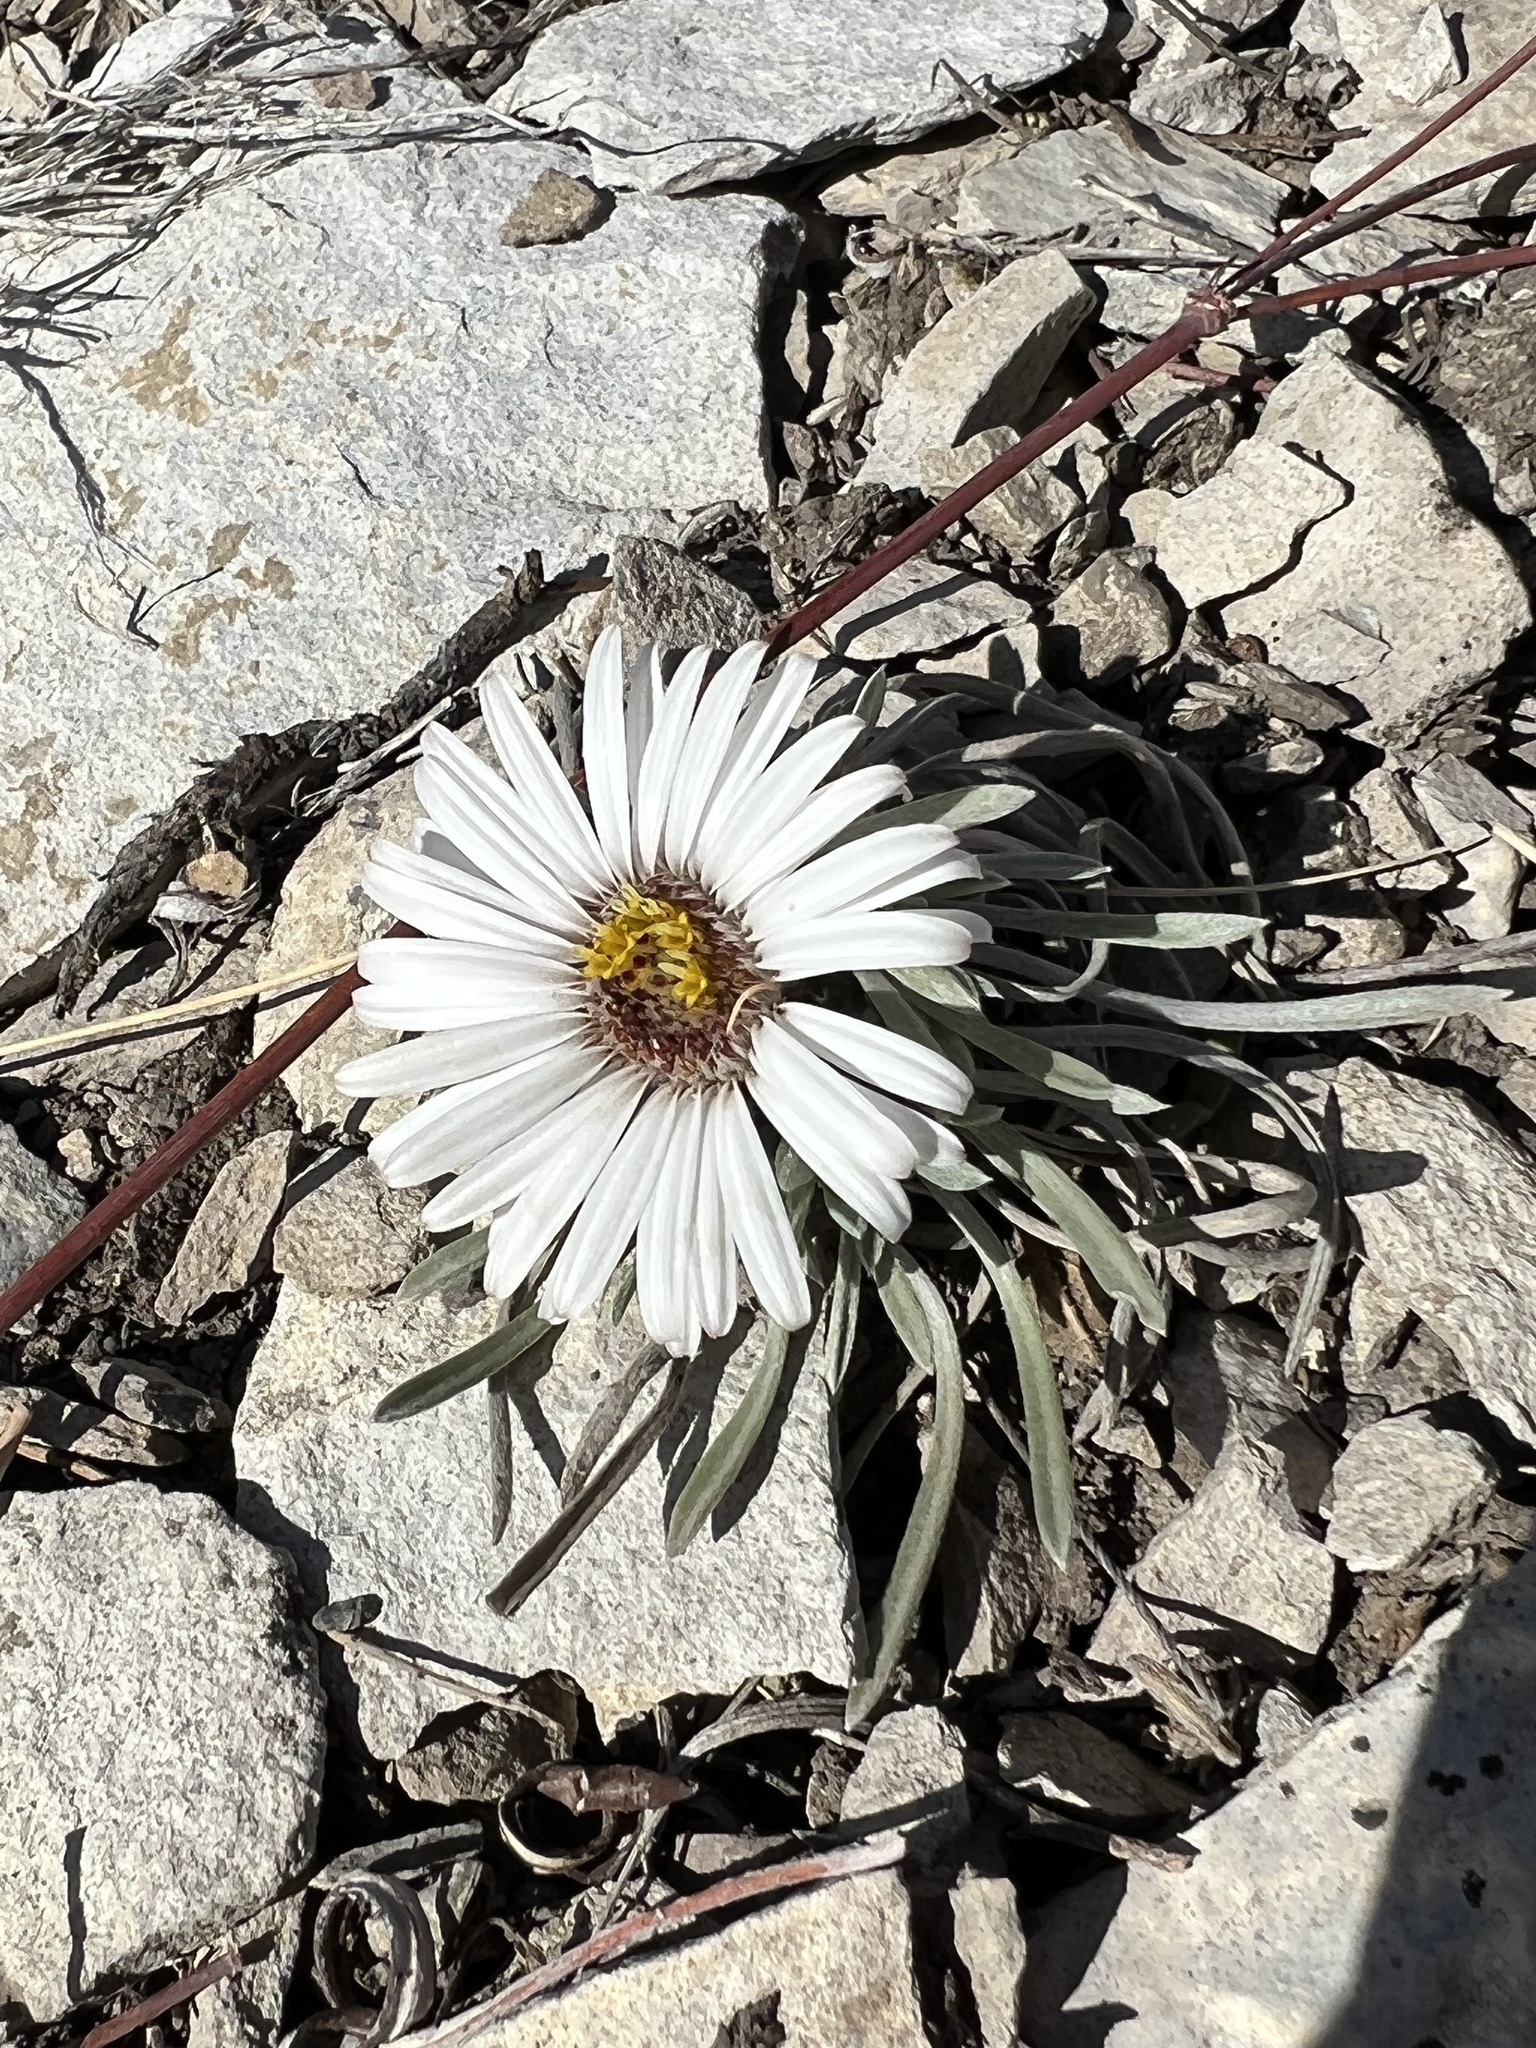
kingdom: Plantae
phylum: Tracheophyta
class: Magnoliopsida
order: Asterales
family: Asteraceae
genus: Townsendia
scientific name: Townsendia hookeri
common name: Hooker's townsend daisy
